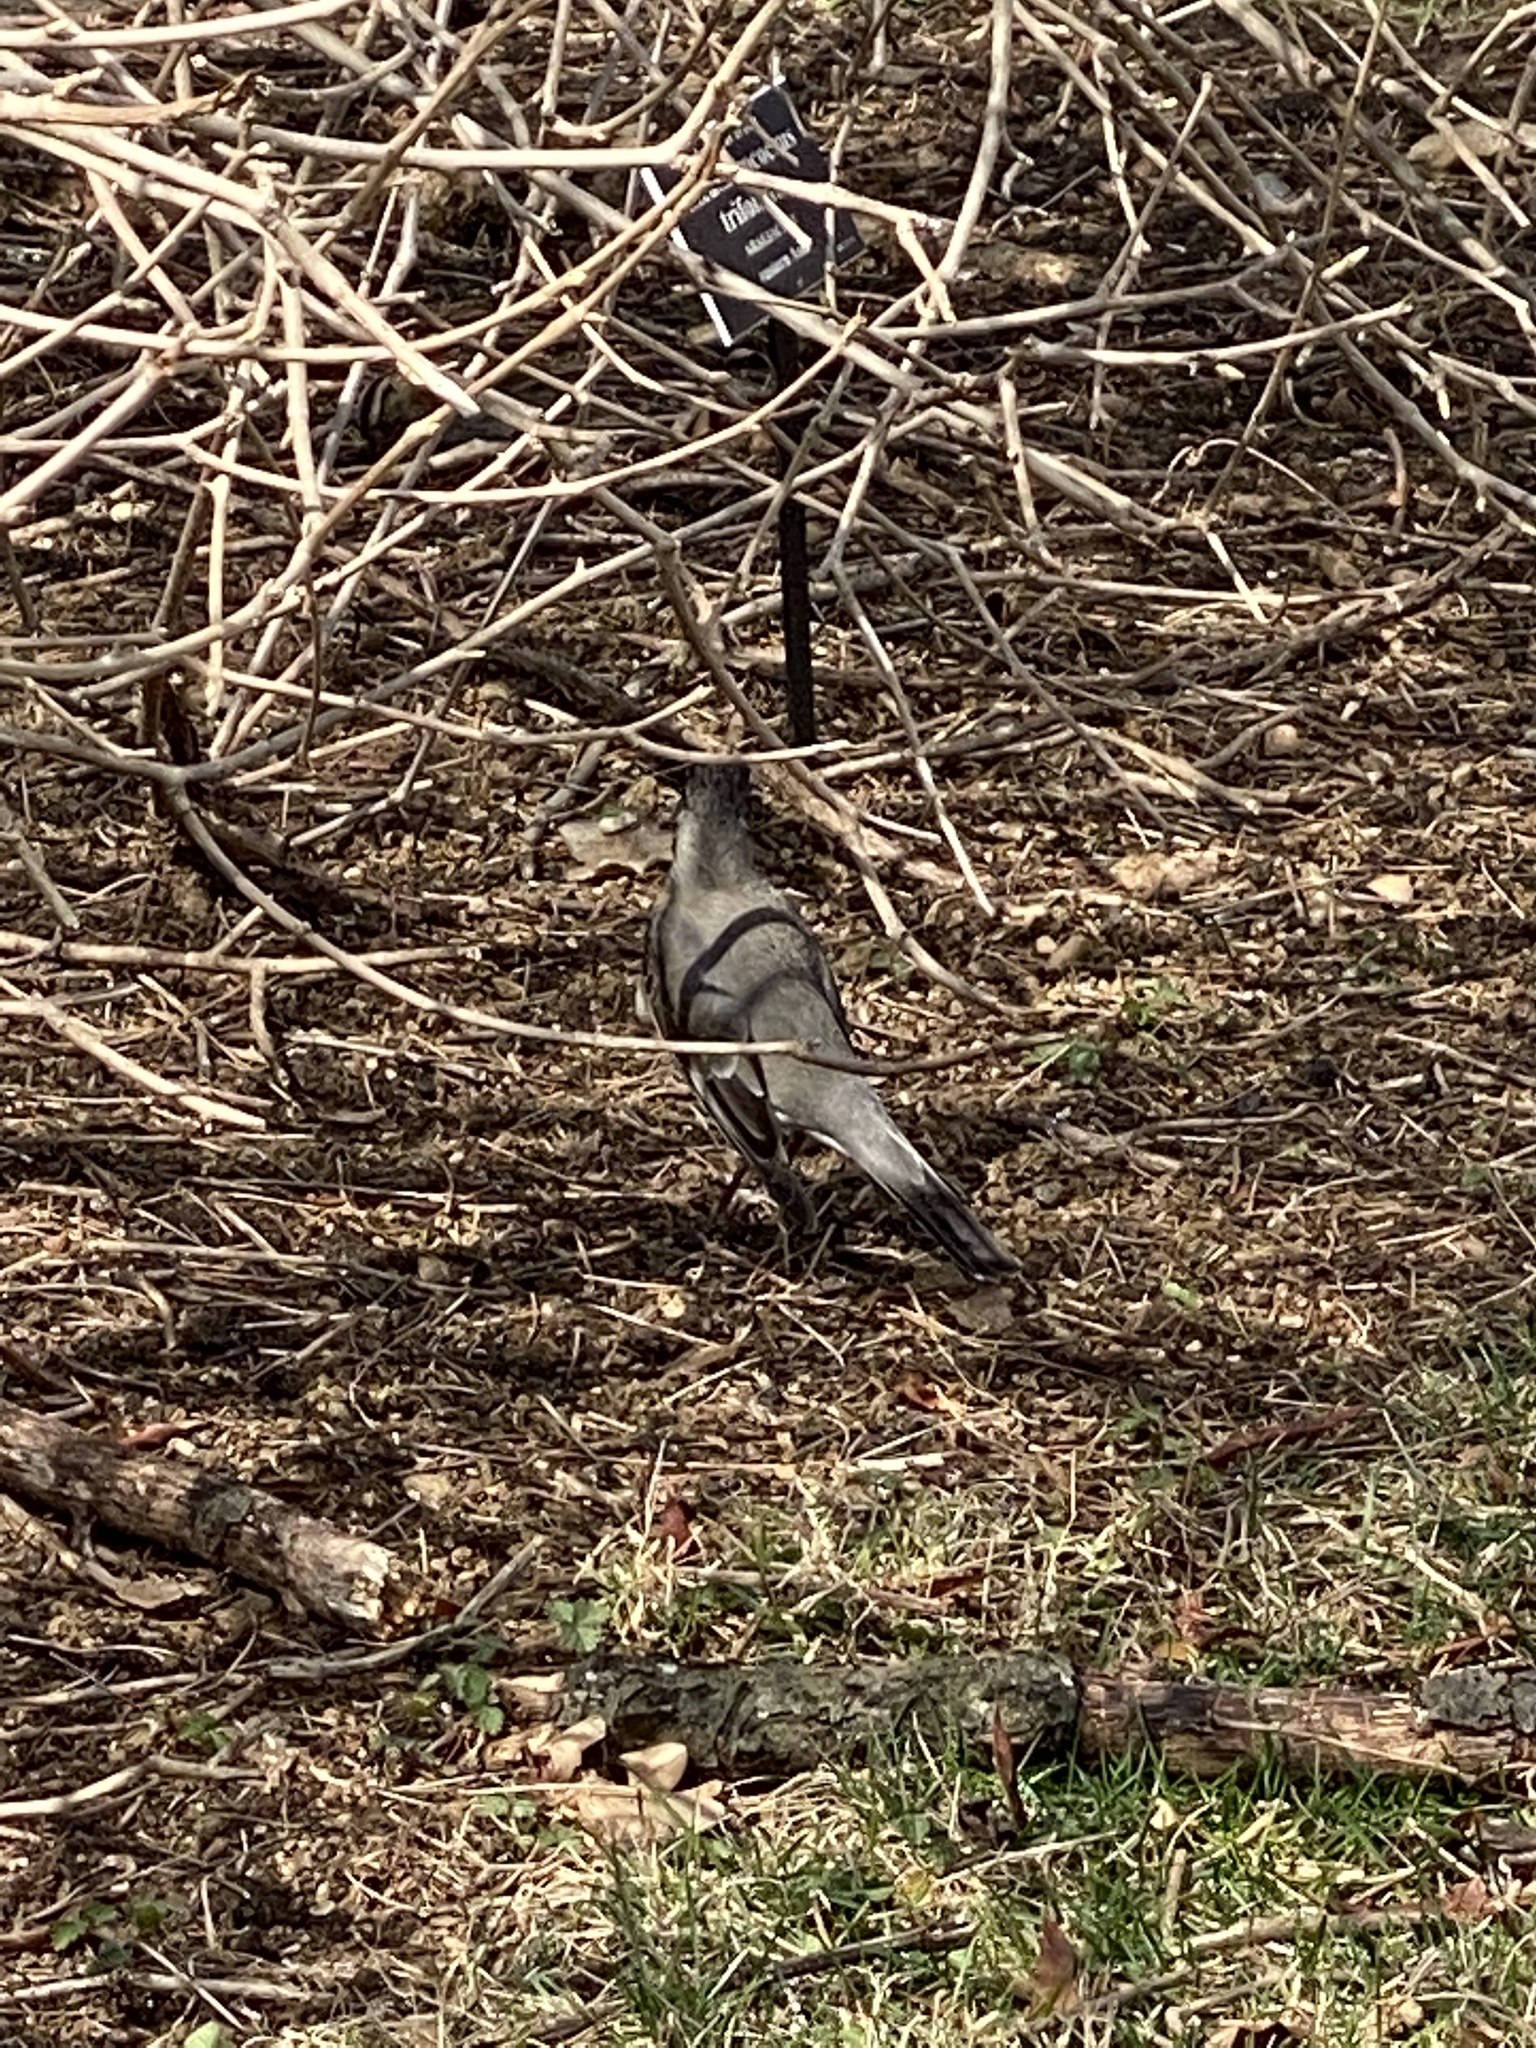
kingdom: Animalia
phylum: Chordata
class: Aves
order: Passeriformes
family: Turdidae
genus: Turdus
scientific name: Turdus migratorius
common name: American robin
